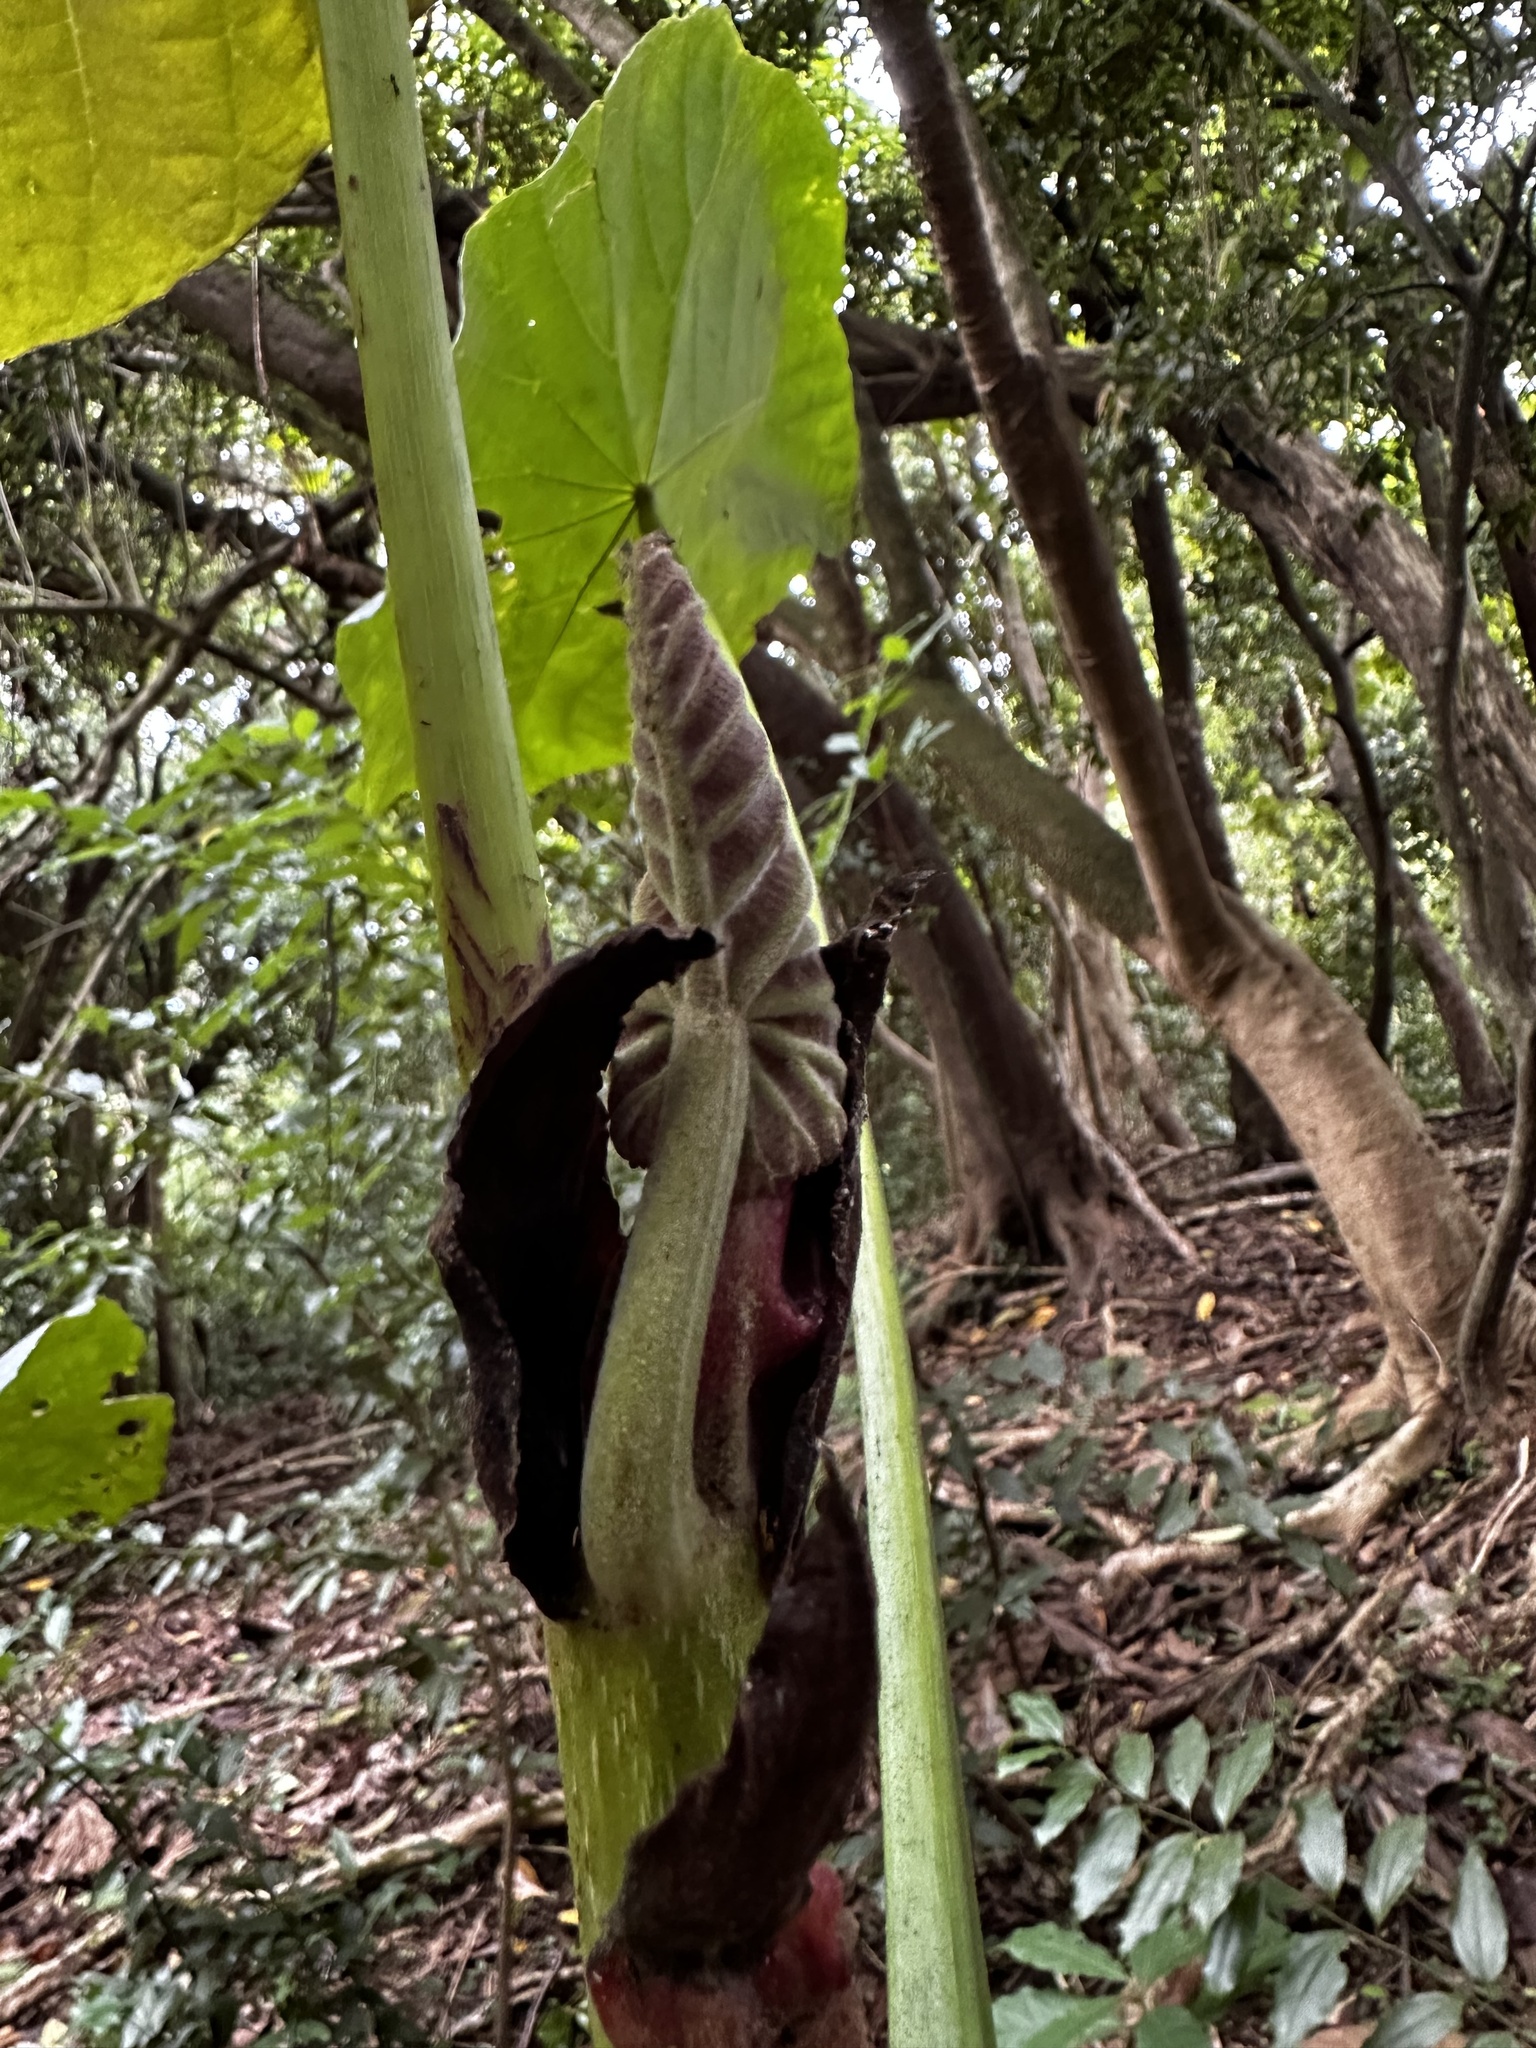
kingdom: Plantae
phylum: Tracheophyta
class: Magnoliopsida
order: Malpighiales
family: Euphorbiaceae
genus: Macaranga
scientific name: Macaranga mappa
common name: Pengua
